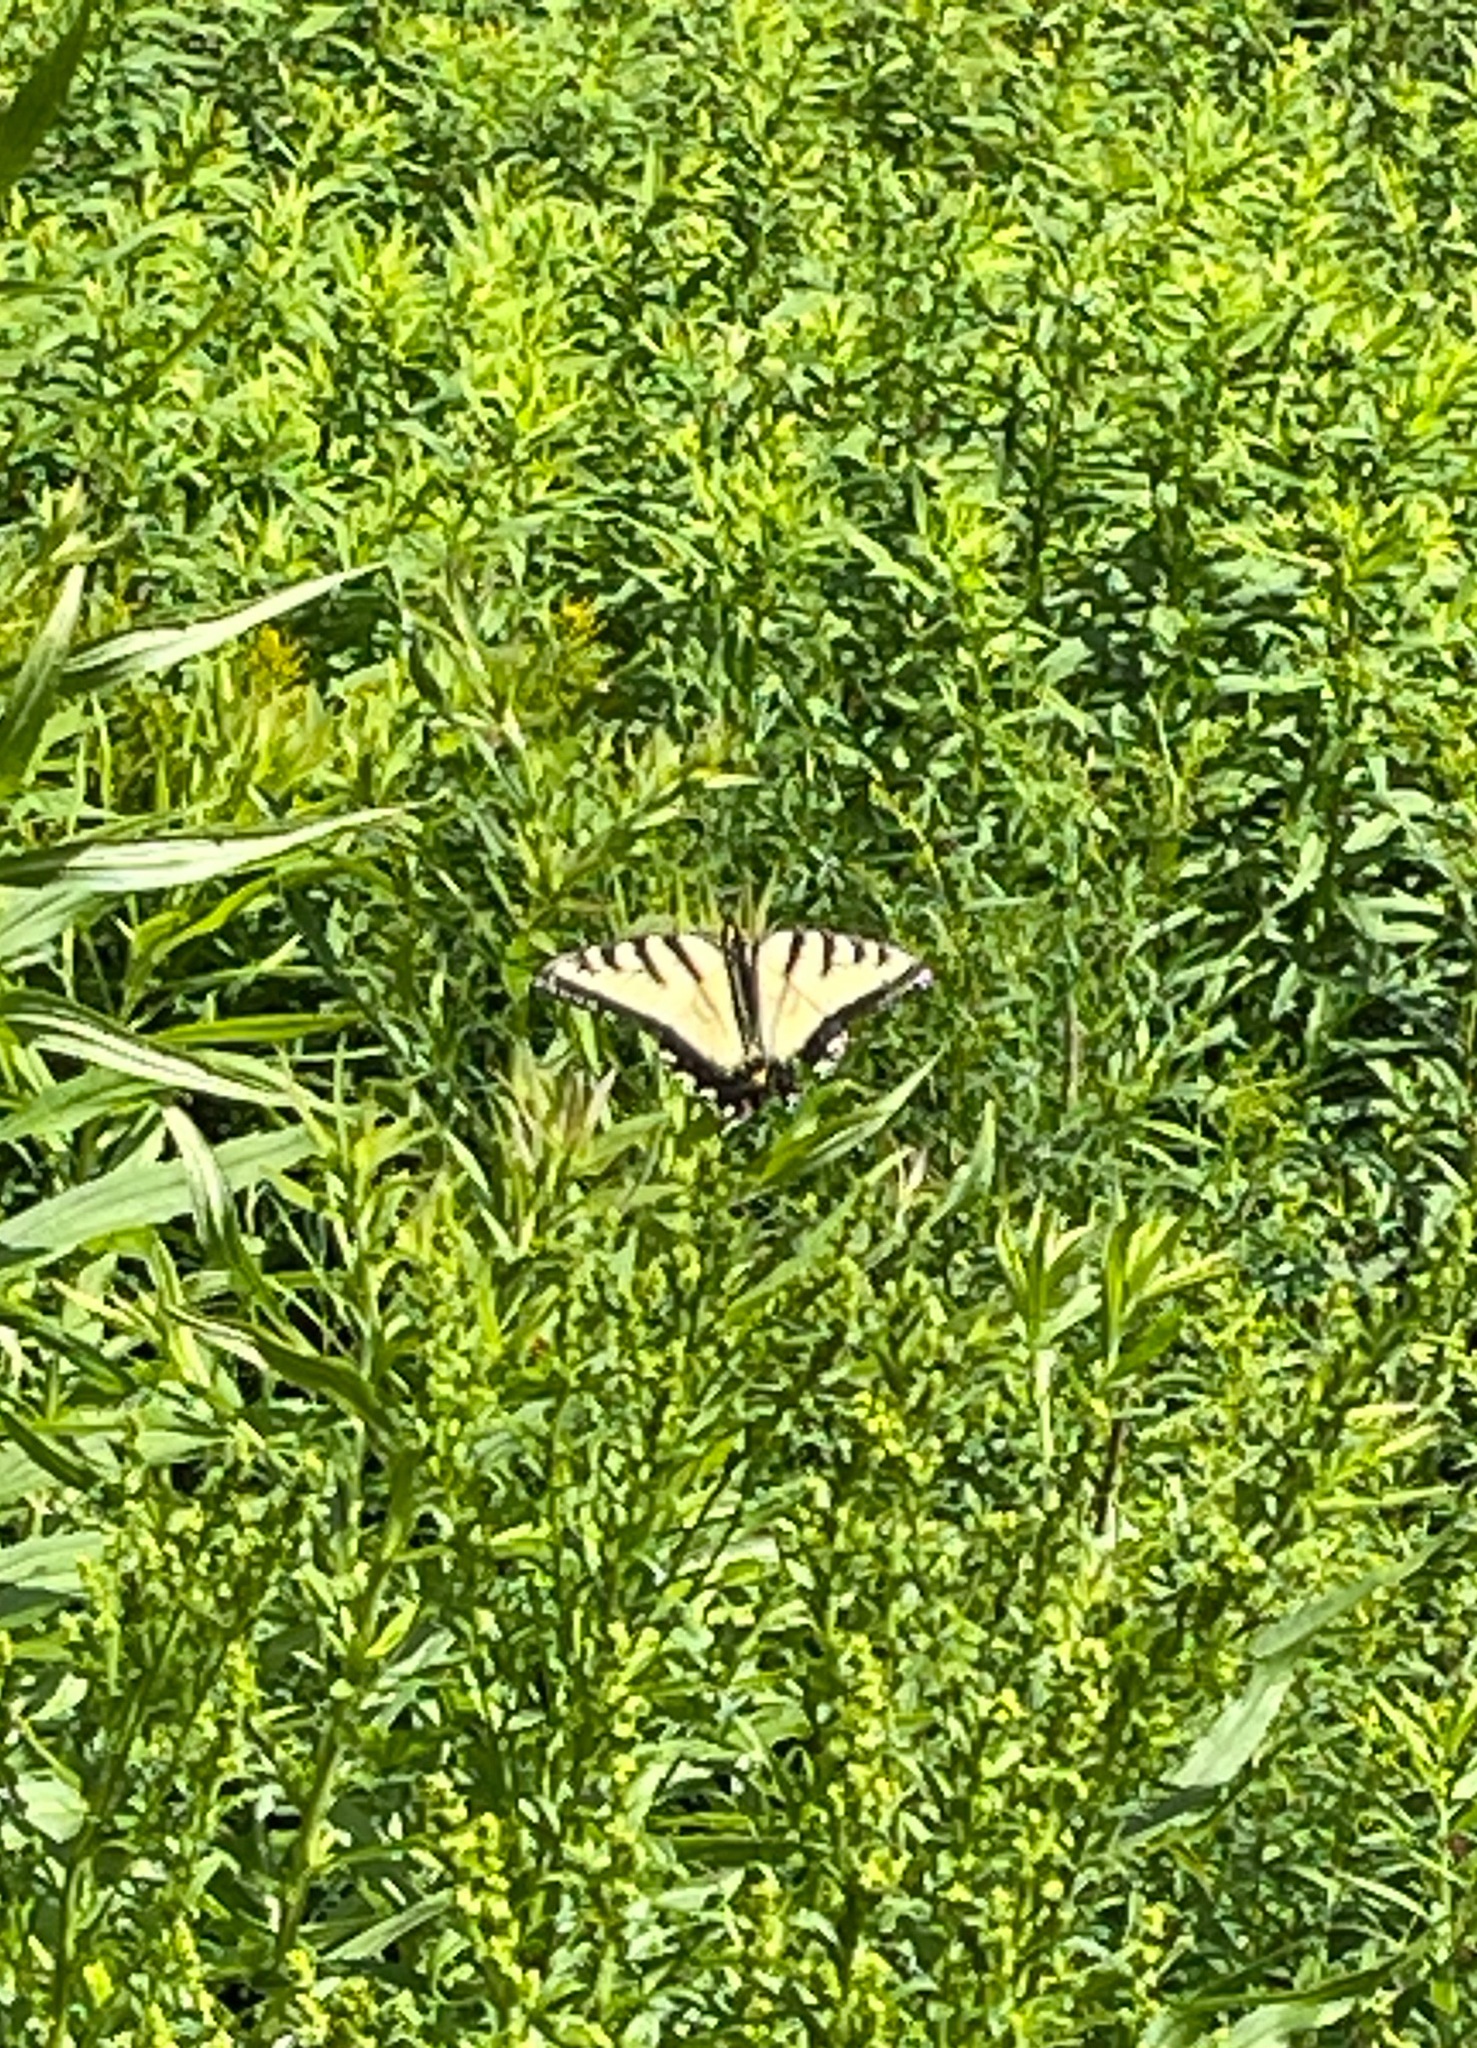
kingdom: Animalia
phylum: Arthropoda
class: Insecta
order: Lepidoptera
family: Papilionidae
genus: Pterourus
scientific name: Pterourus
